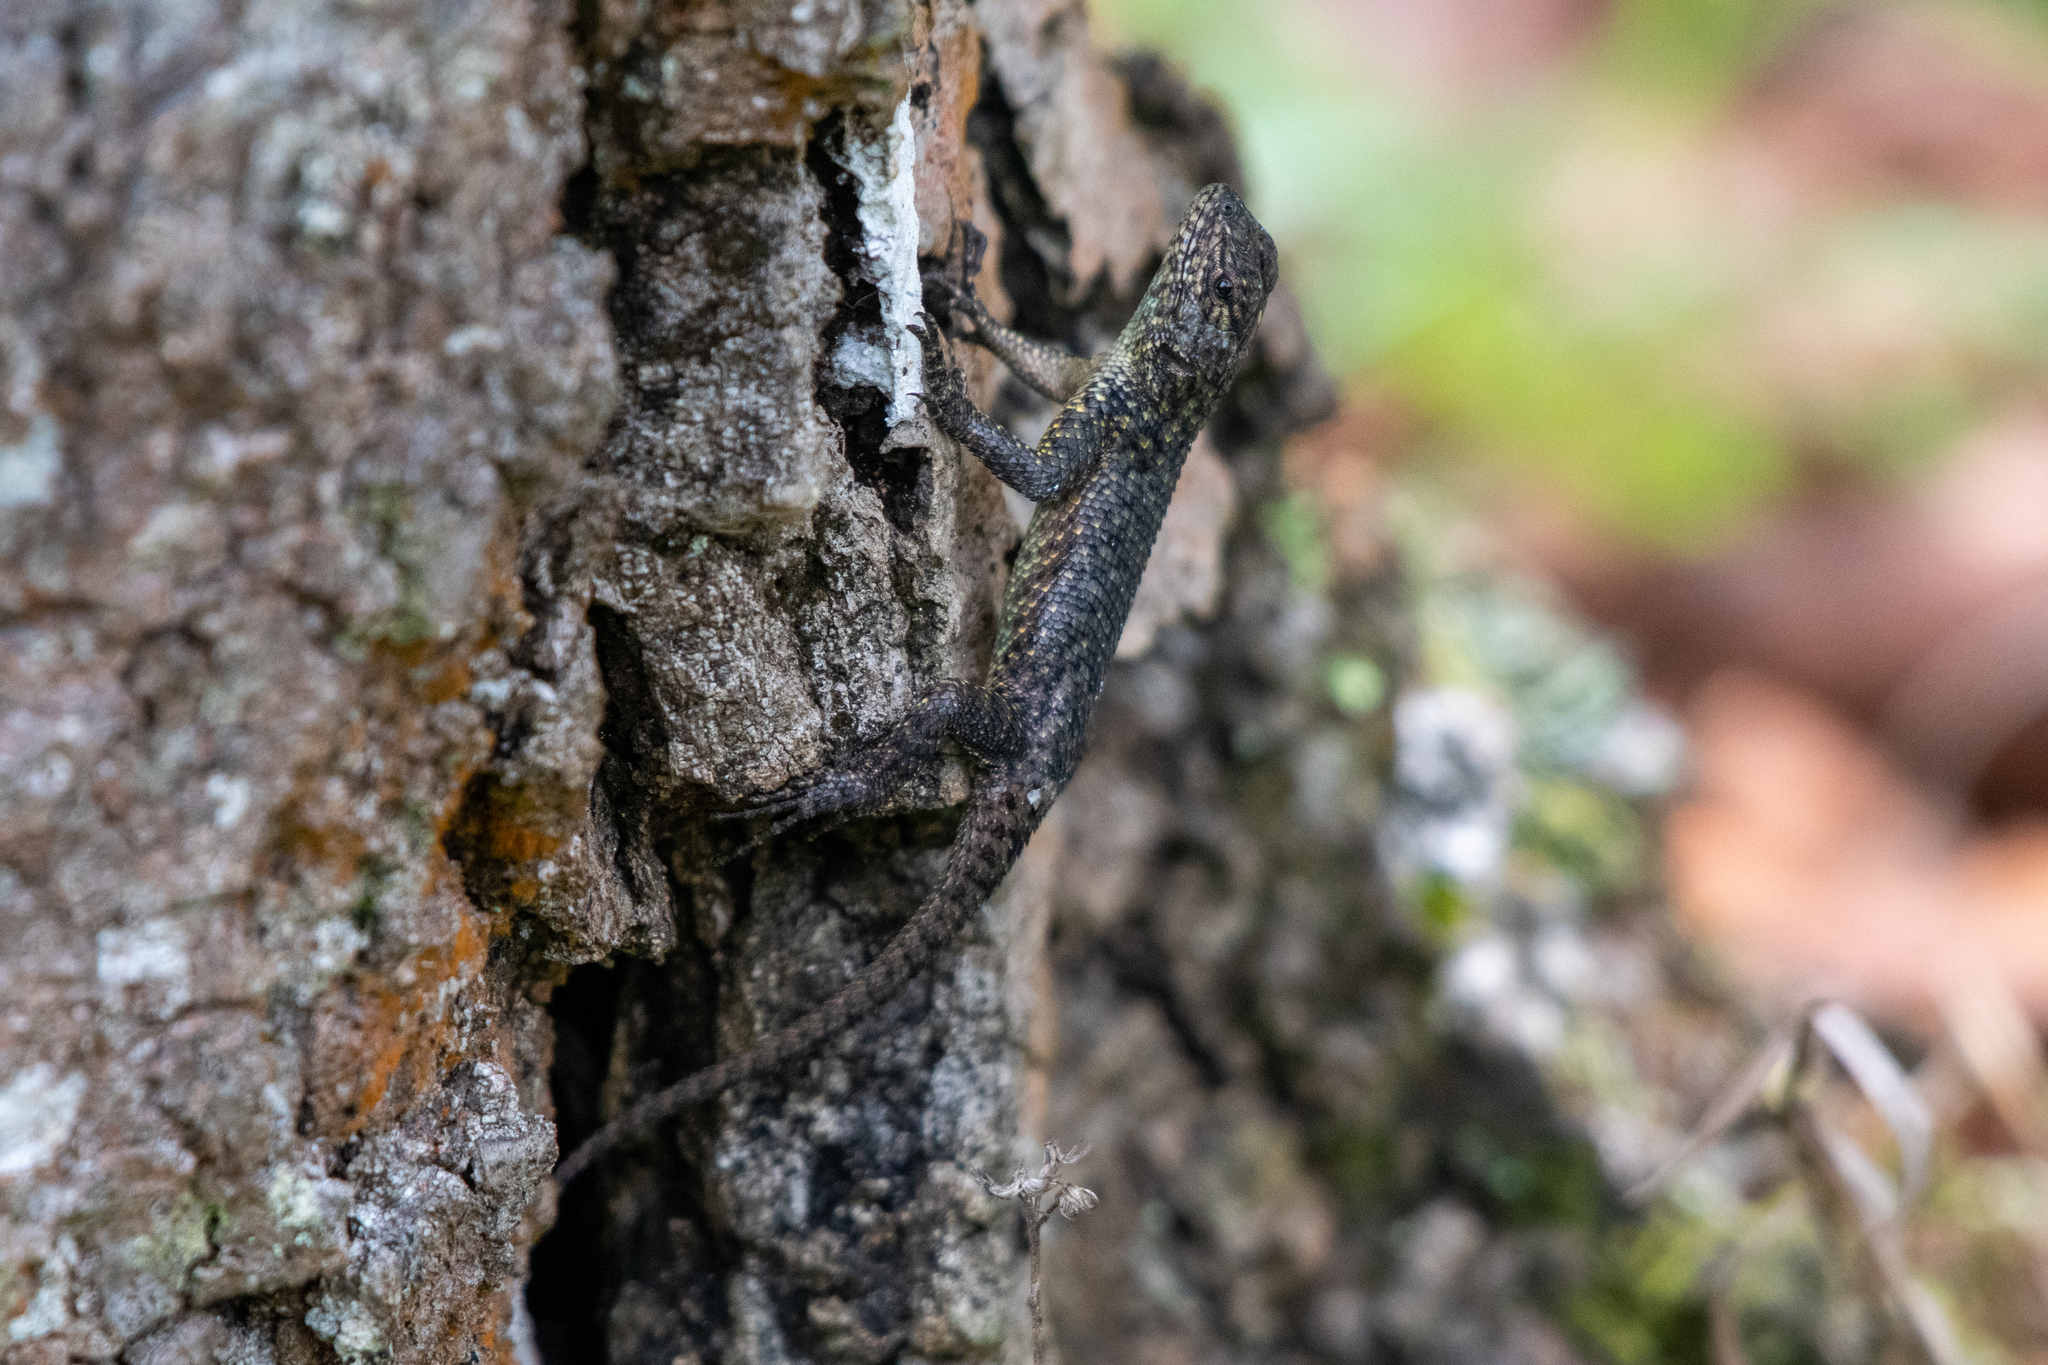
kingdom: Animalia
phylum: Chordata
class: Squamata
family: Phrynosomatidae
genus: Sceloporus
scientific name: Sceloporus esperanzae
